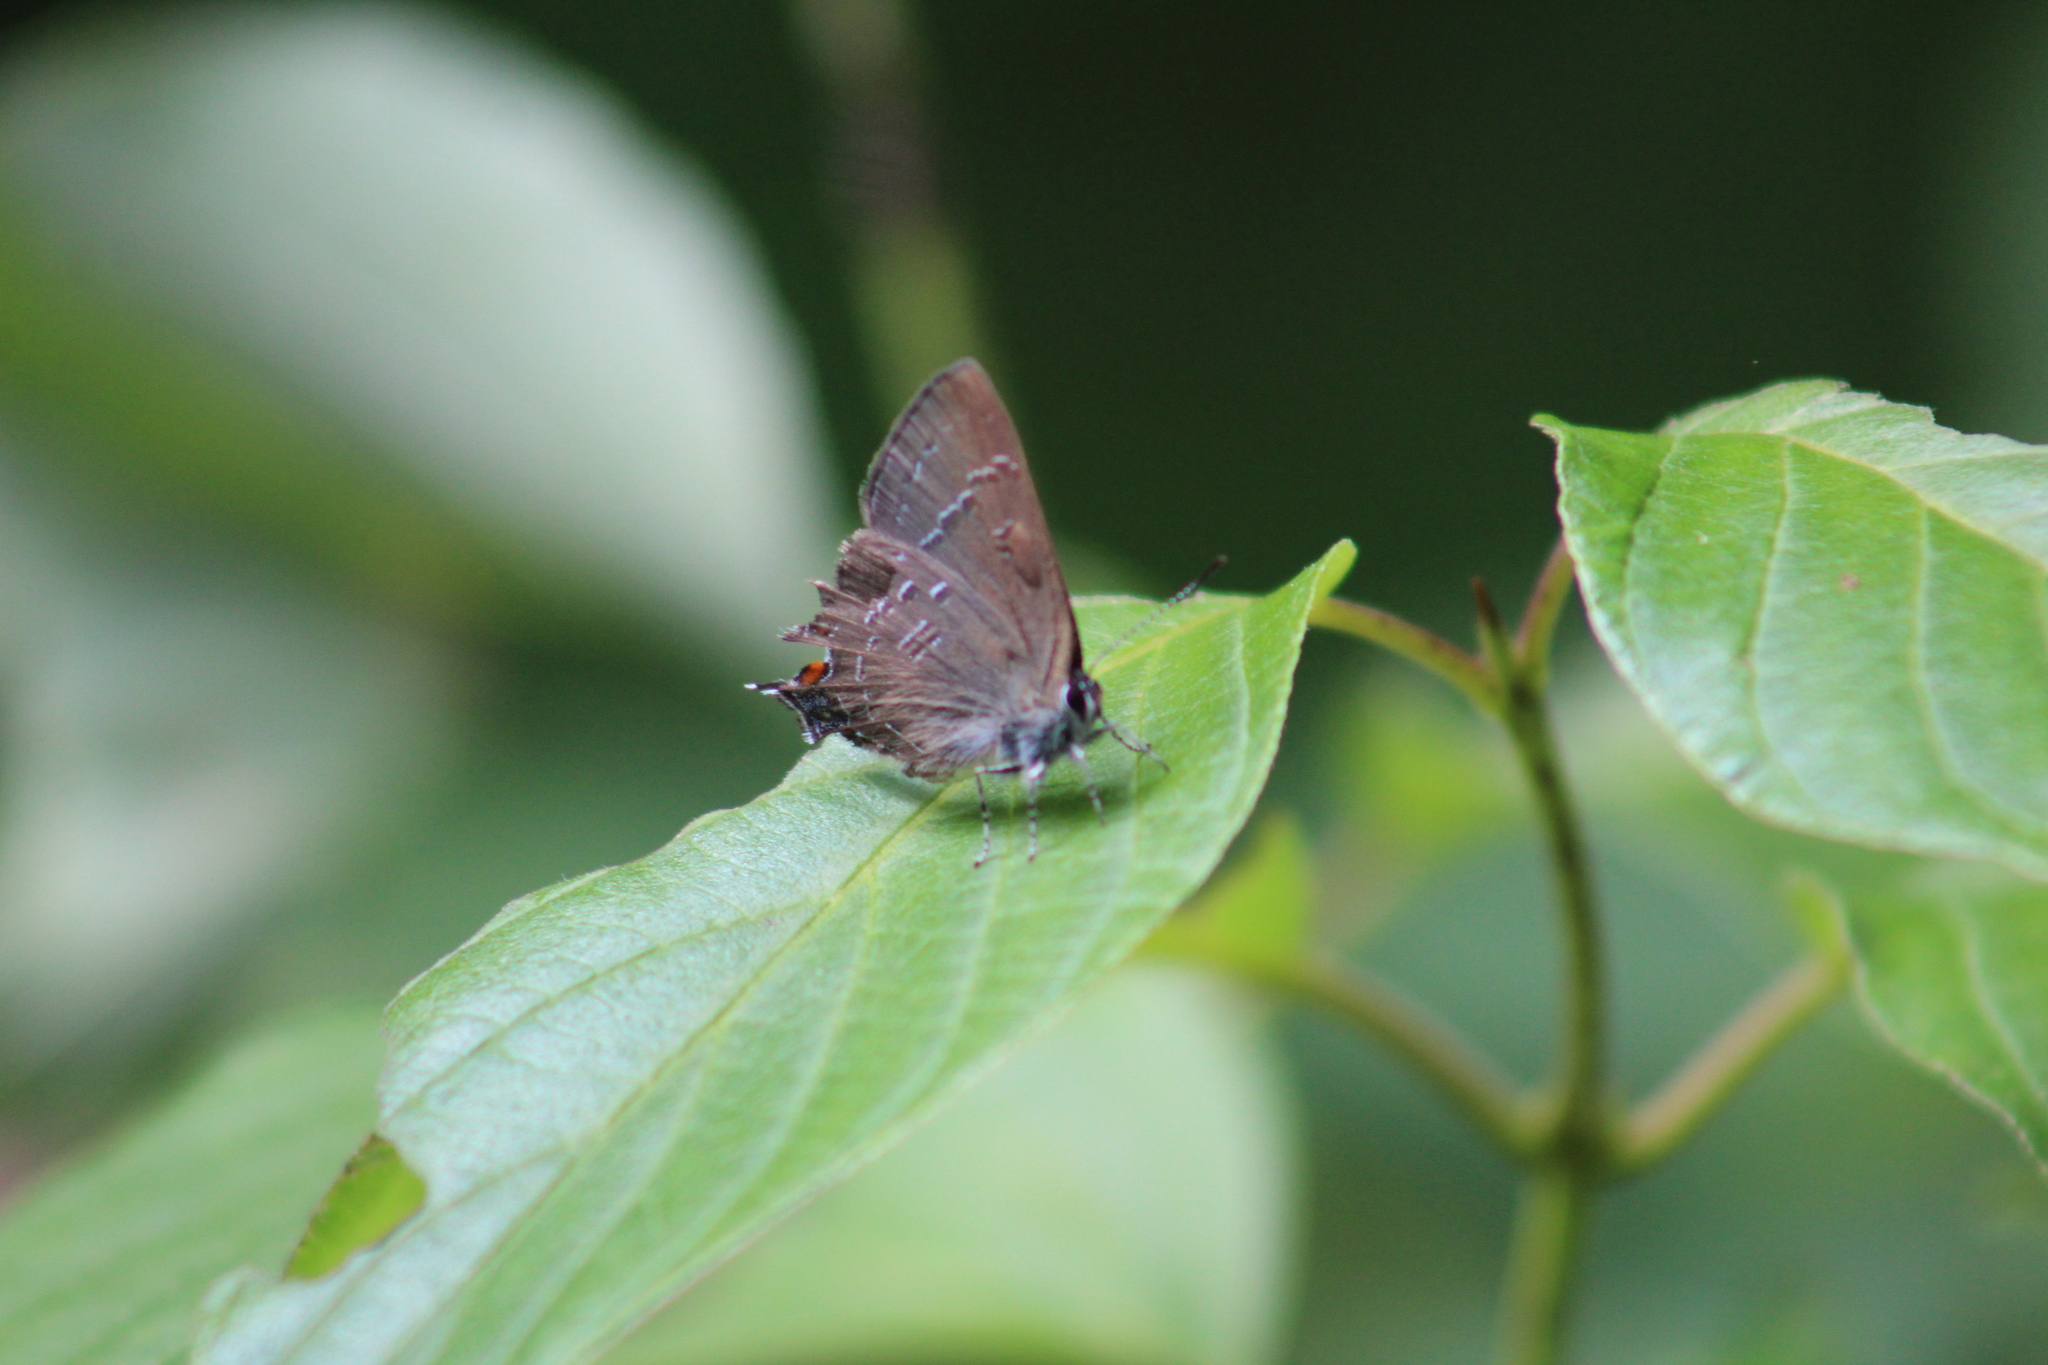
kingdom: Animalia
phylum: Arthropoda
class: Insecta
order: Lepidoptera
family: Lycaenidae
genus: Satyrium
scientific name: Satyrium calanus
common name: Banded hairstreak
